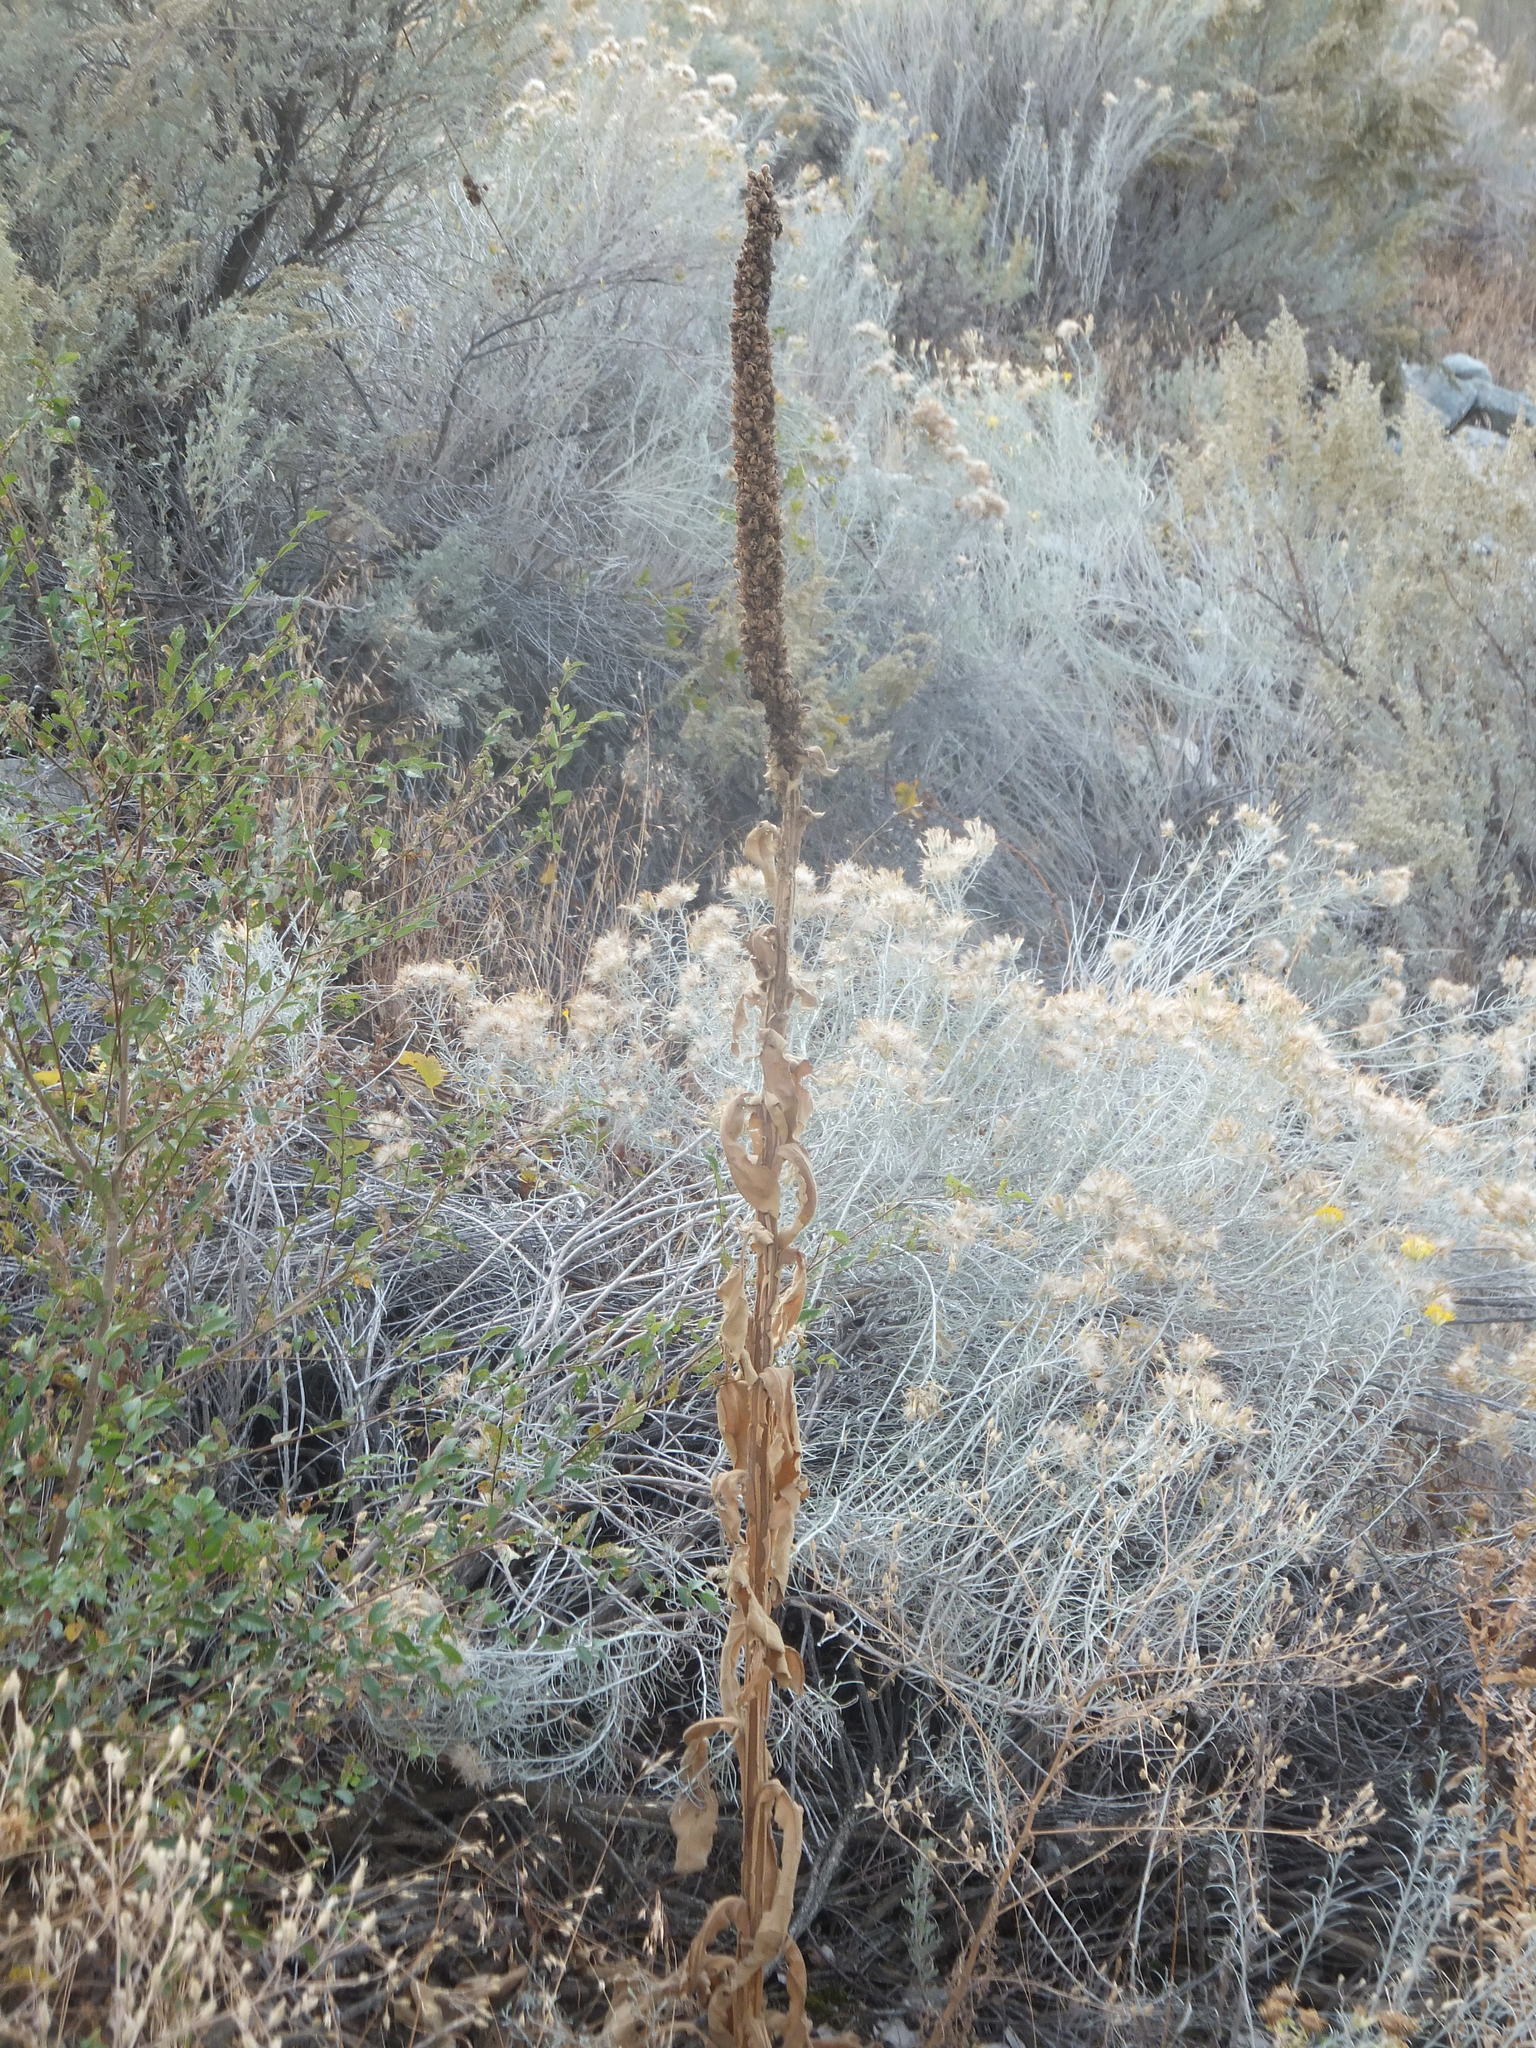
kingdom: Plantae
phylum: Tracheophyta
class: Magnoliopsida
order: Lamiales
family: Scrophulariaceae
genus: Verbascum
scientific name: Verbascum thapsus
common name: Common mullein
